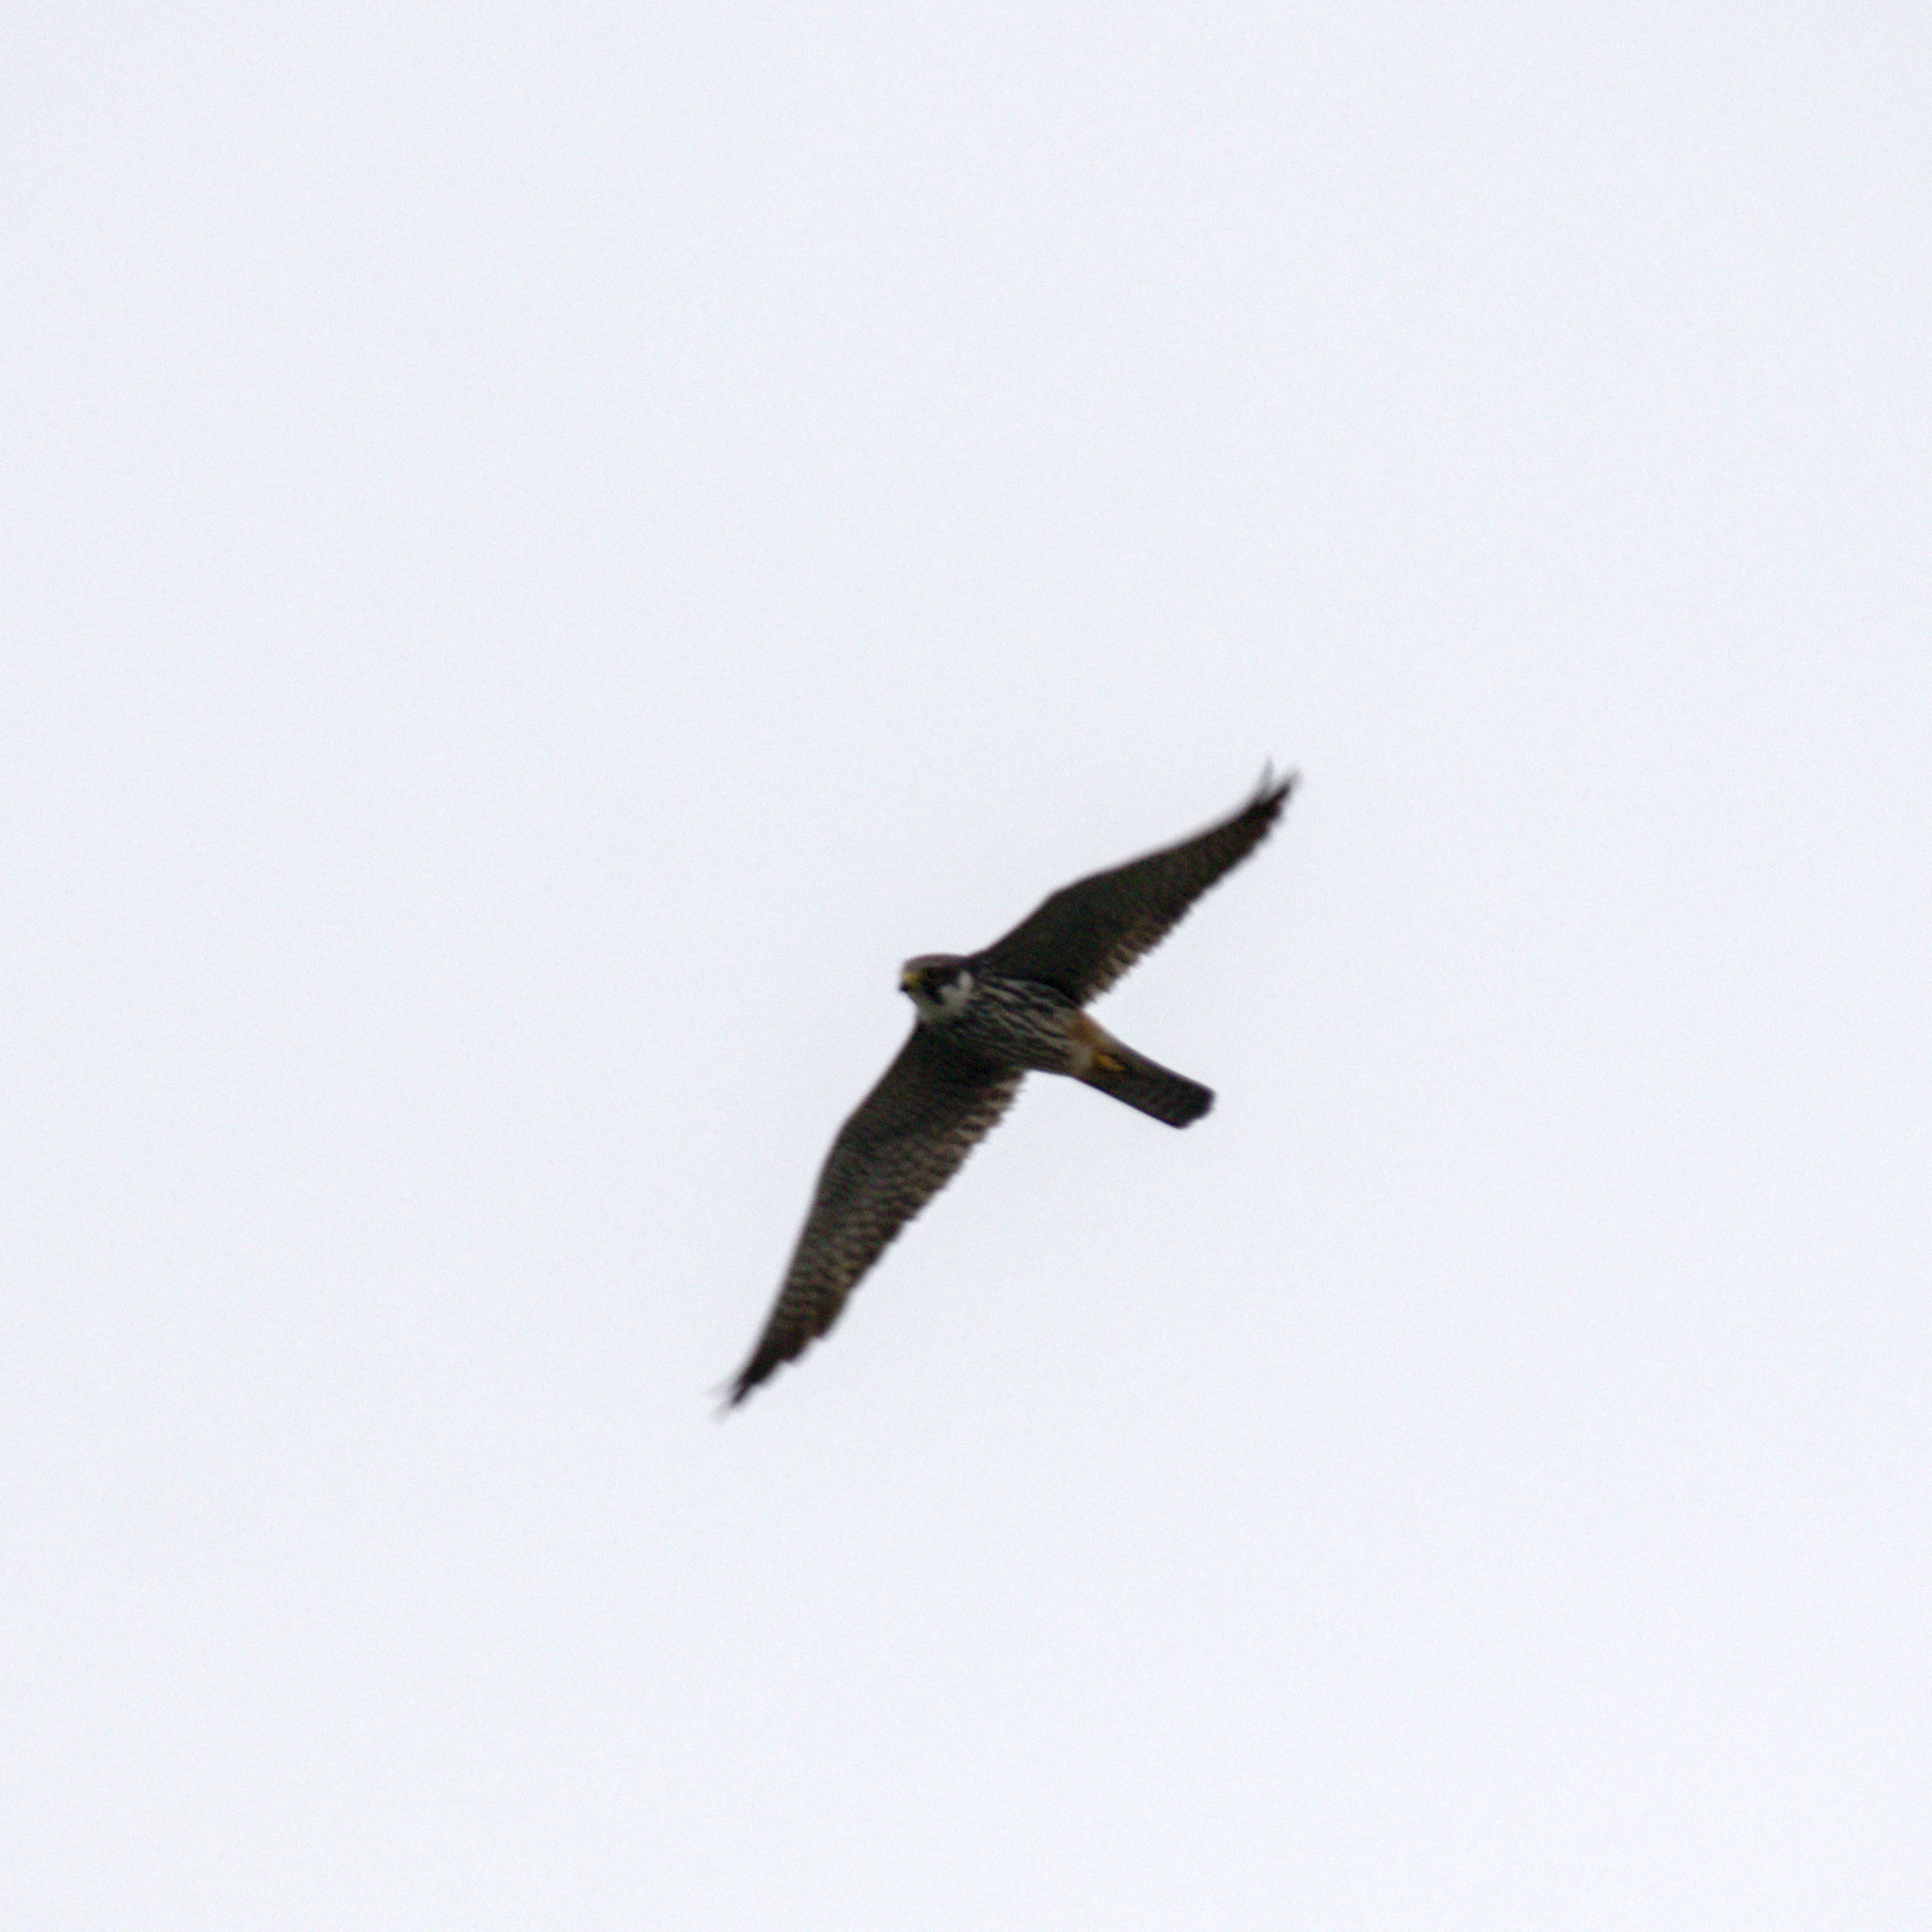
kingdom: Animalia
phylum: Chordata
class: Aves
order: Falconiformes
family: Falconidae
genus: Falco
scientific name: Falco subbuteo
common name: Eurasian hobby
